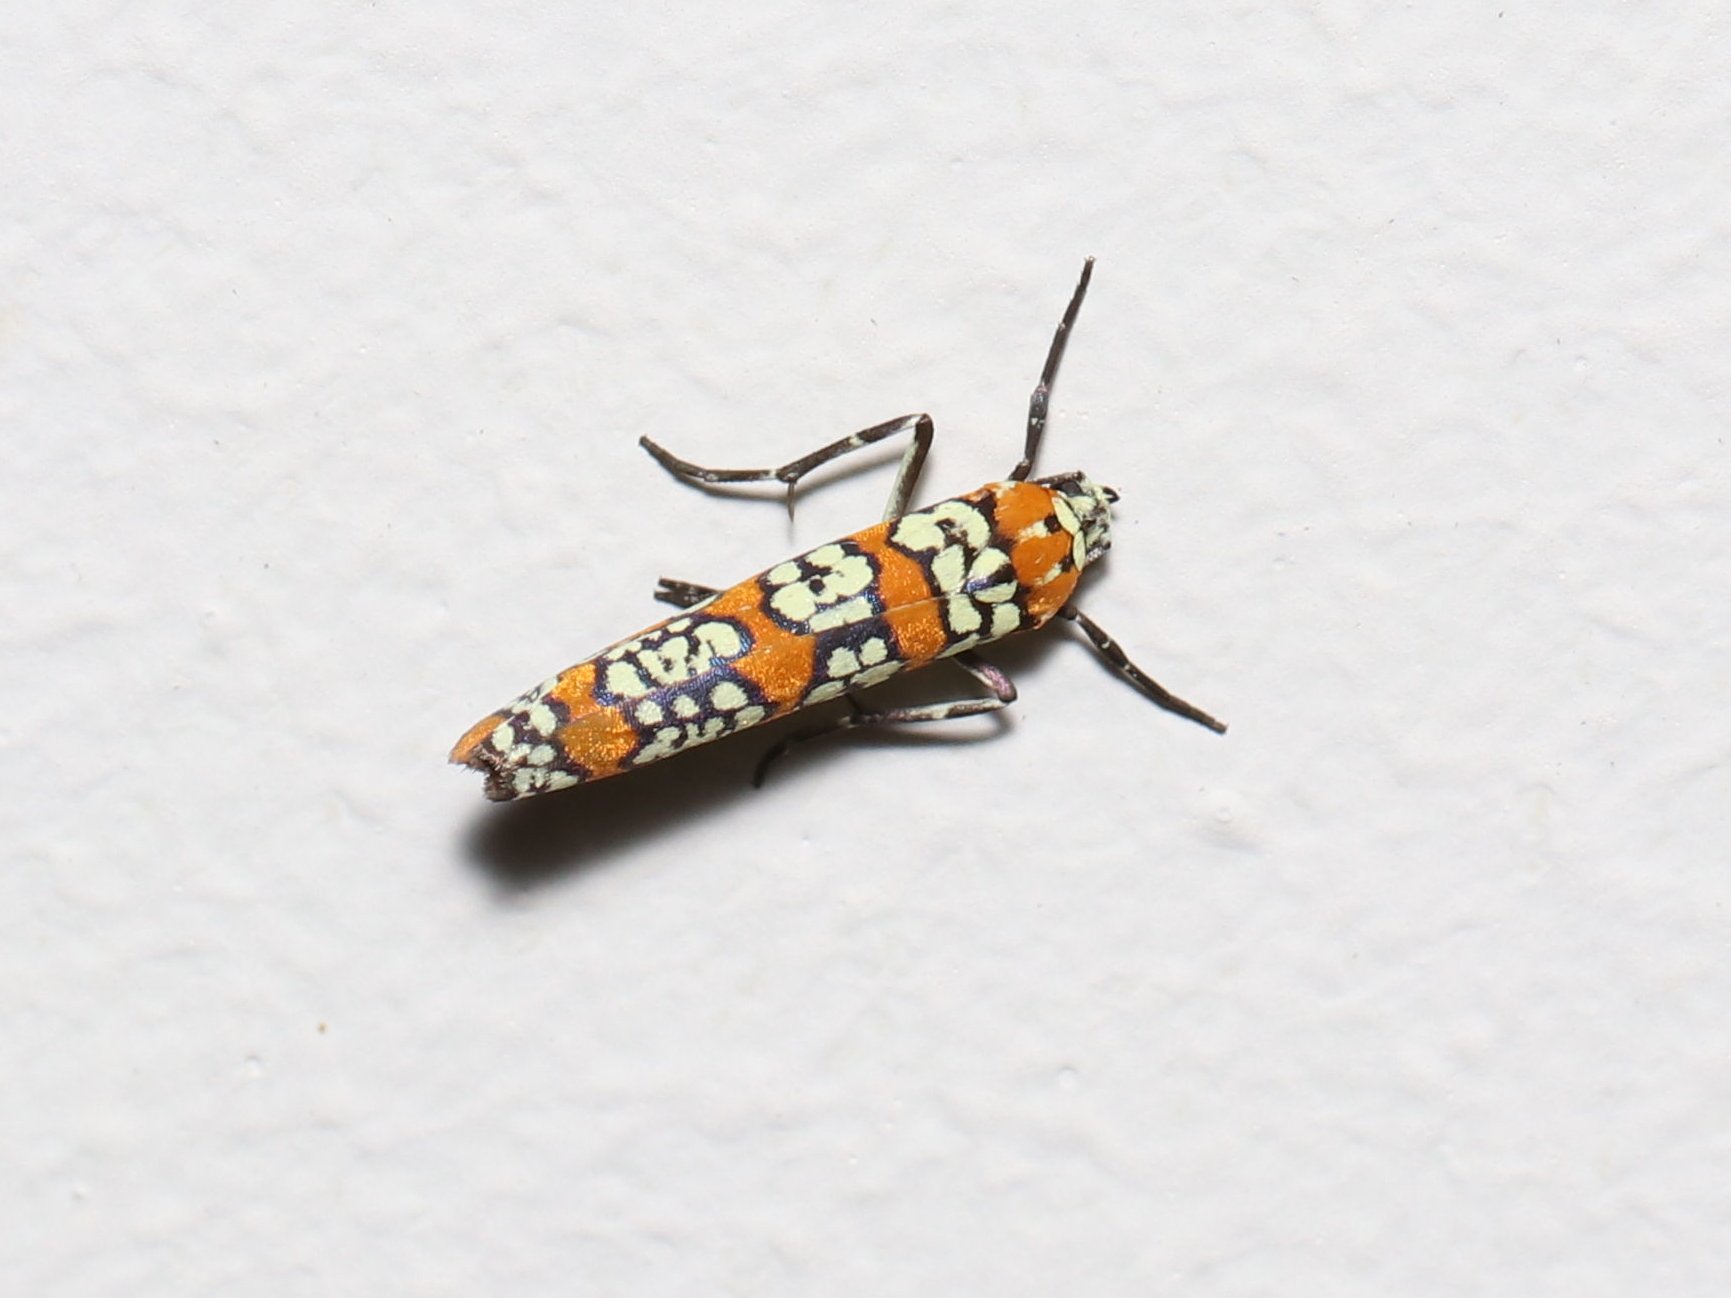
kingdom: Animalia
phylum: Arthropoda
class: Insecta
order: Lepidoptera
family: Attevidae
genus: Atteva
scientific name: Atteva punctella
